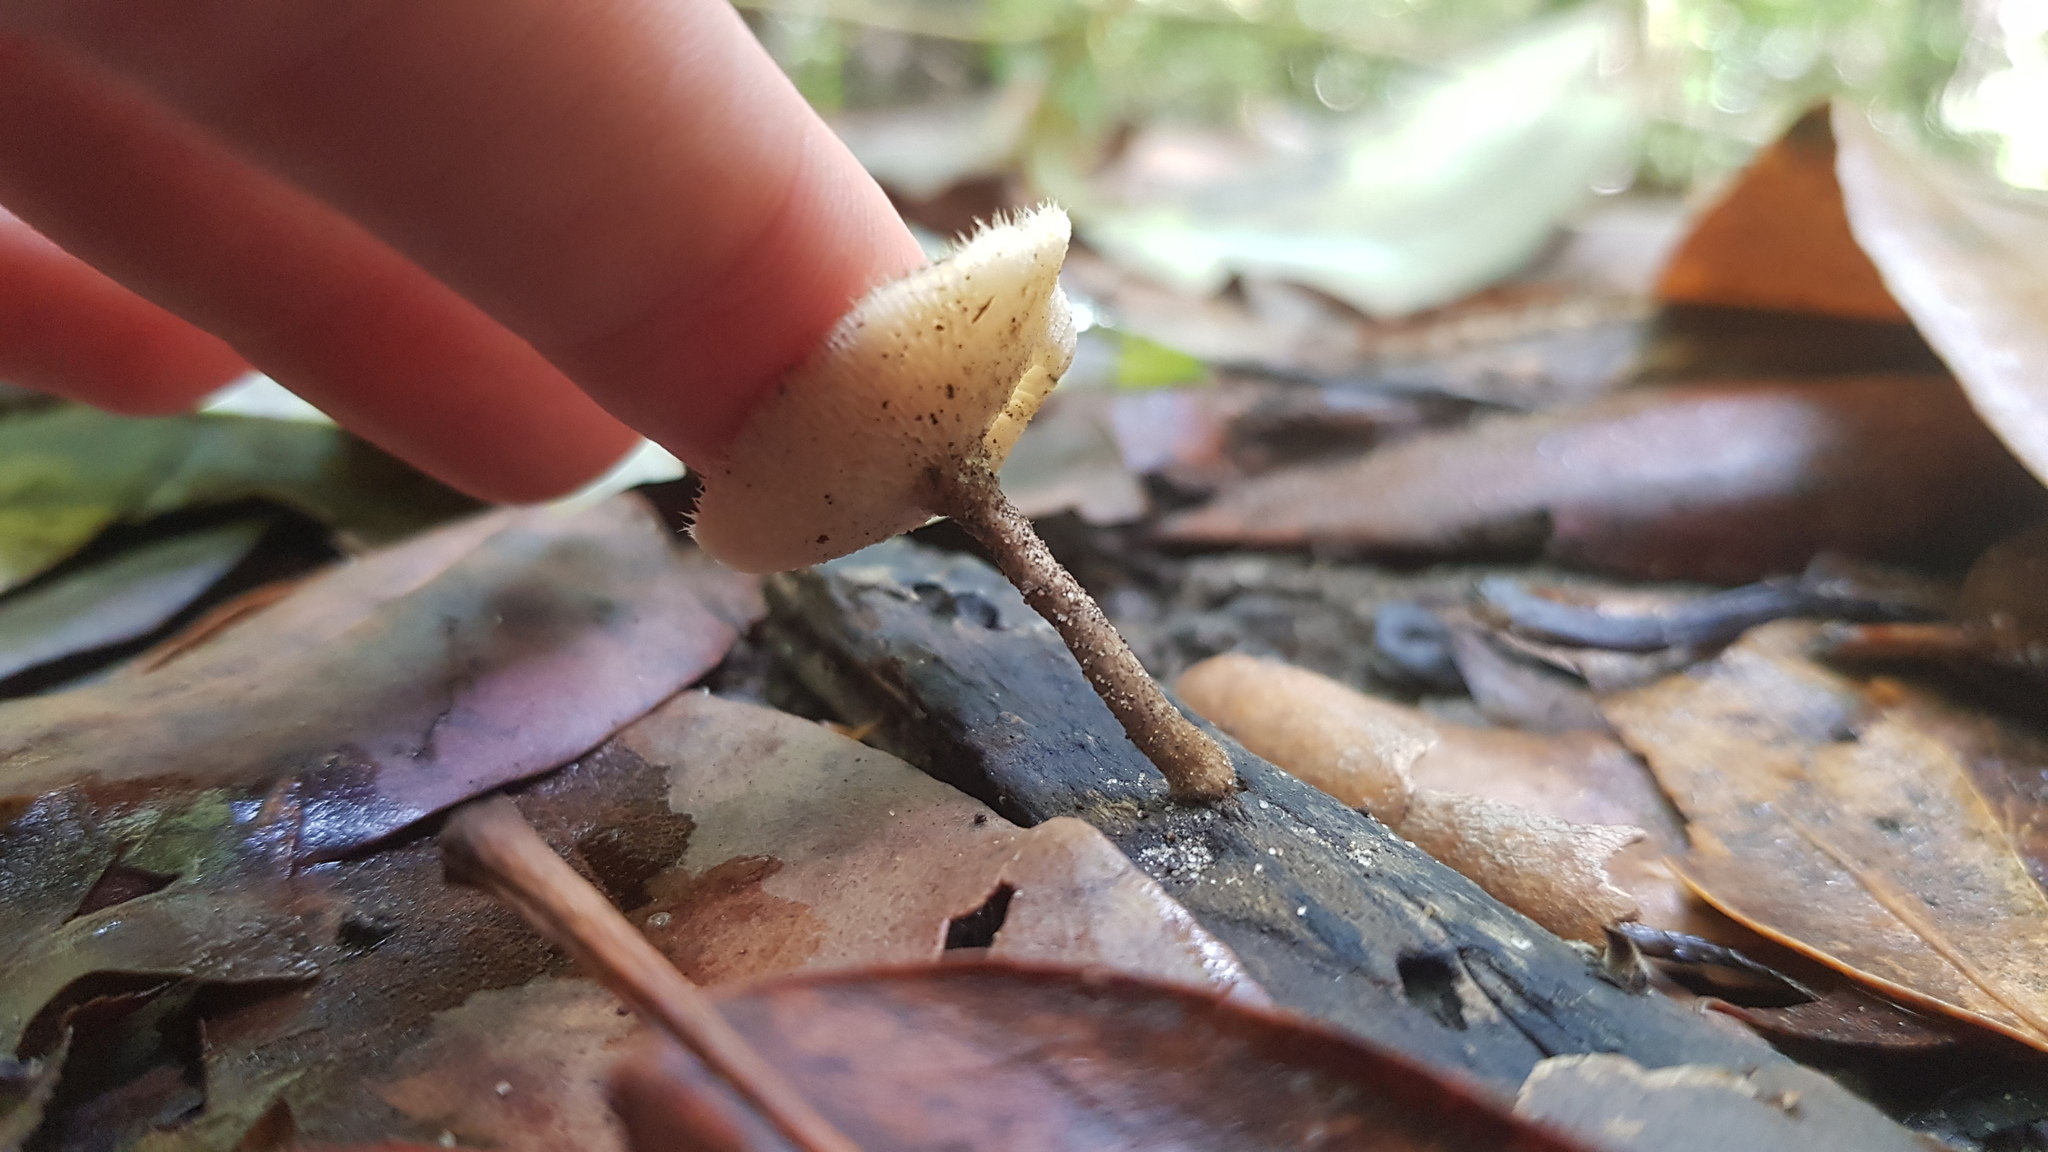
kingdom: Fungi
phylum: Basidiomycota
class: Agaricomycetes
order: Polyporales
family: Polyporaceae
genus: Lentinus
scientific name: Lentinus arcularius
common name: Spring polypore
